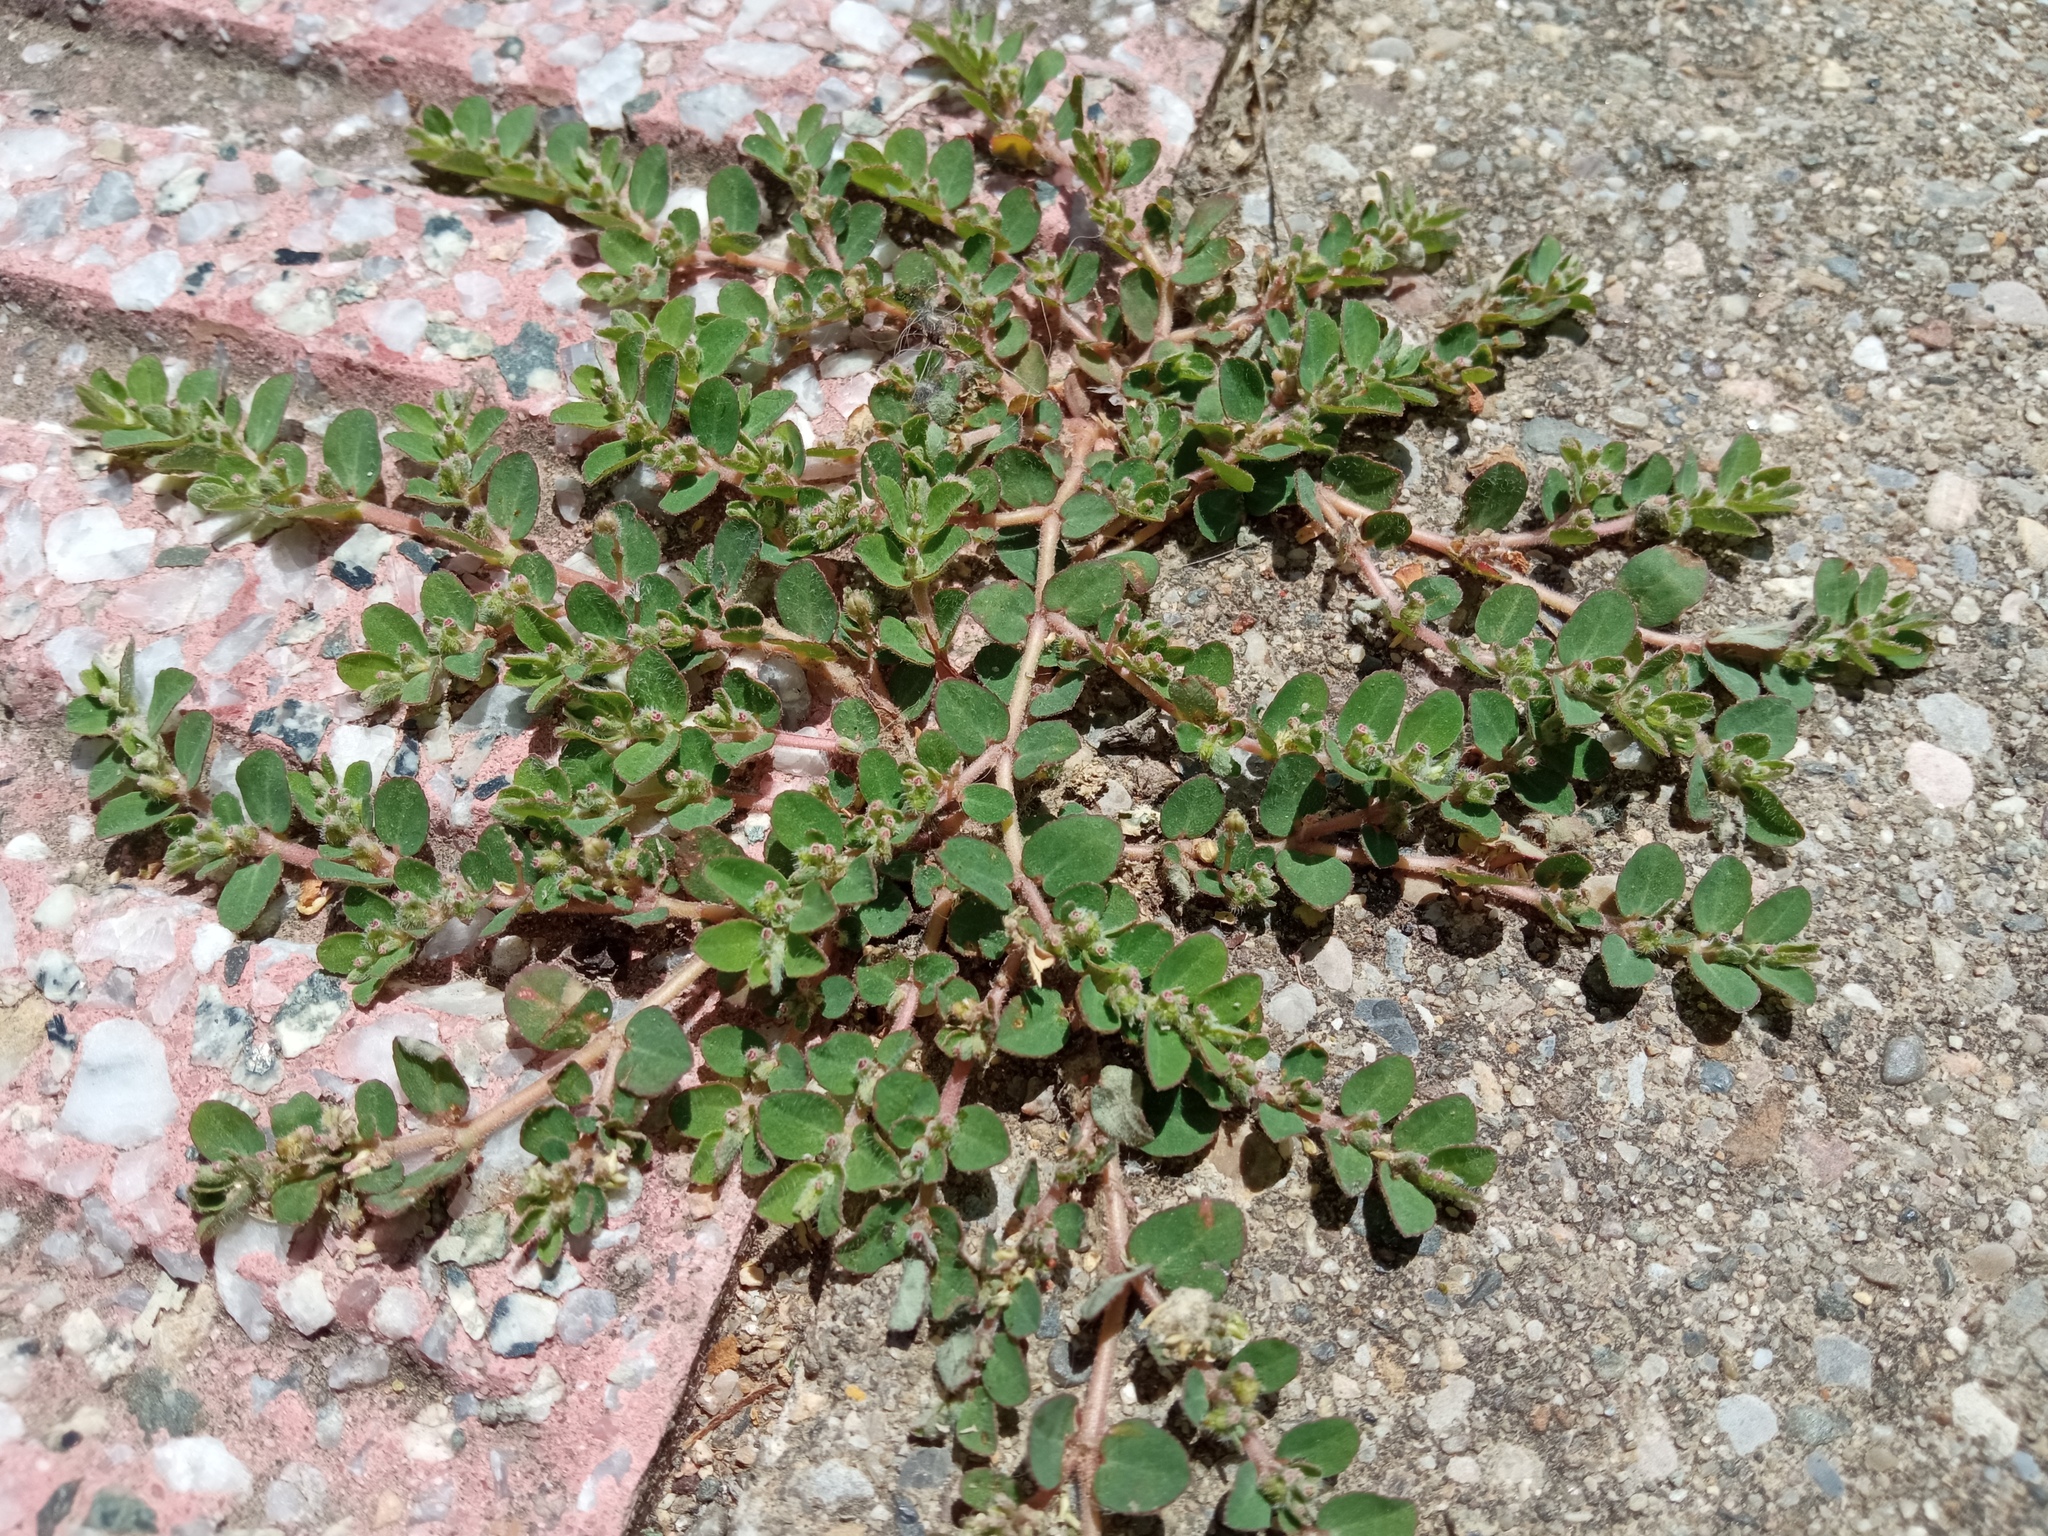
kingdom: Plantae
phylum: Tracheophyta
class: Magnoliopsida
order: Malpighiales
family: Euphorbiaceae
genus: Euphorbia
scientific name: Euphorbia prostrata
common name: Prostrate sandmat
